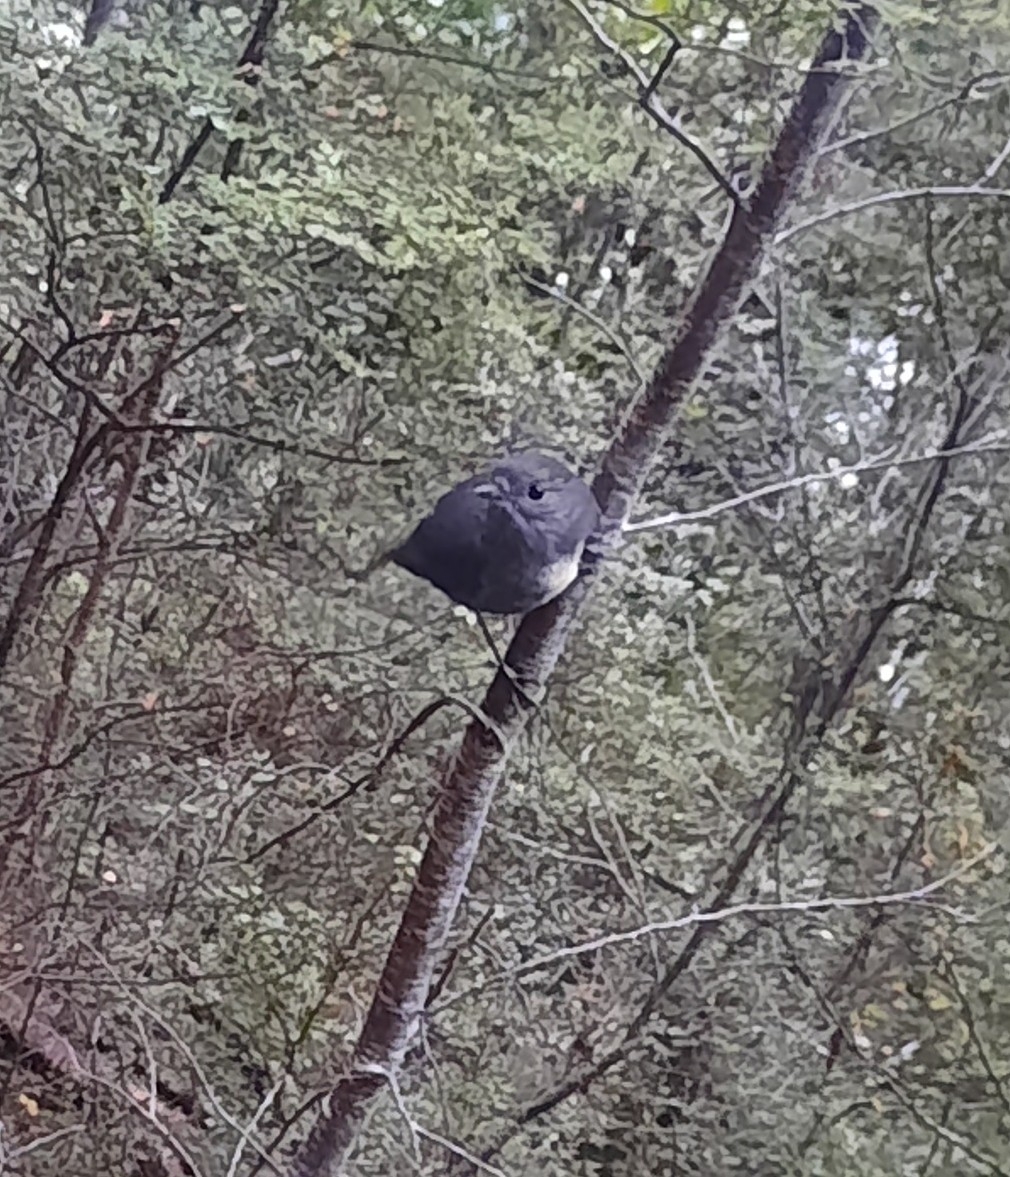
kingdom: Animalia
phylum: Chordata
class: Aves
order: Passeriformes
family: Petroicidae
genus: Petroica
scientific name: Petroica australis
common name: New zealand robin
